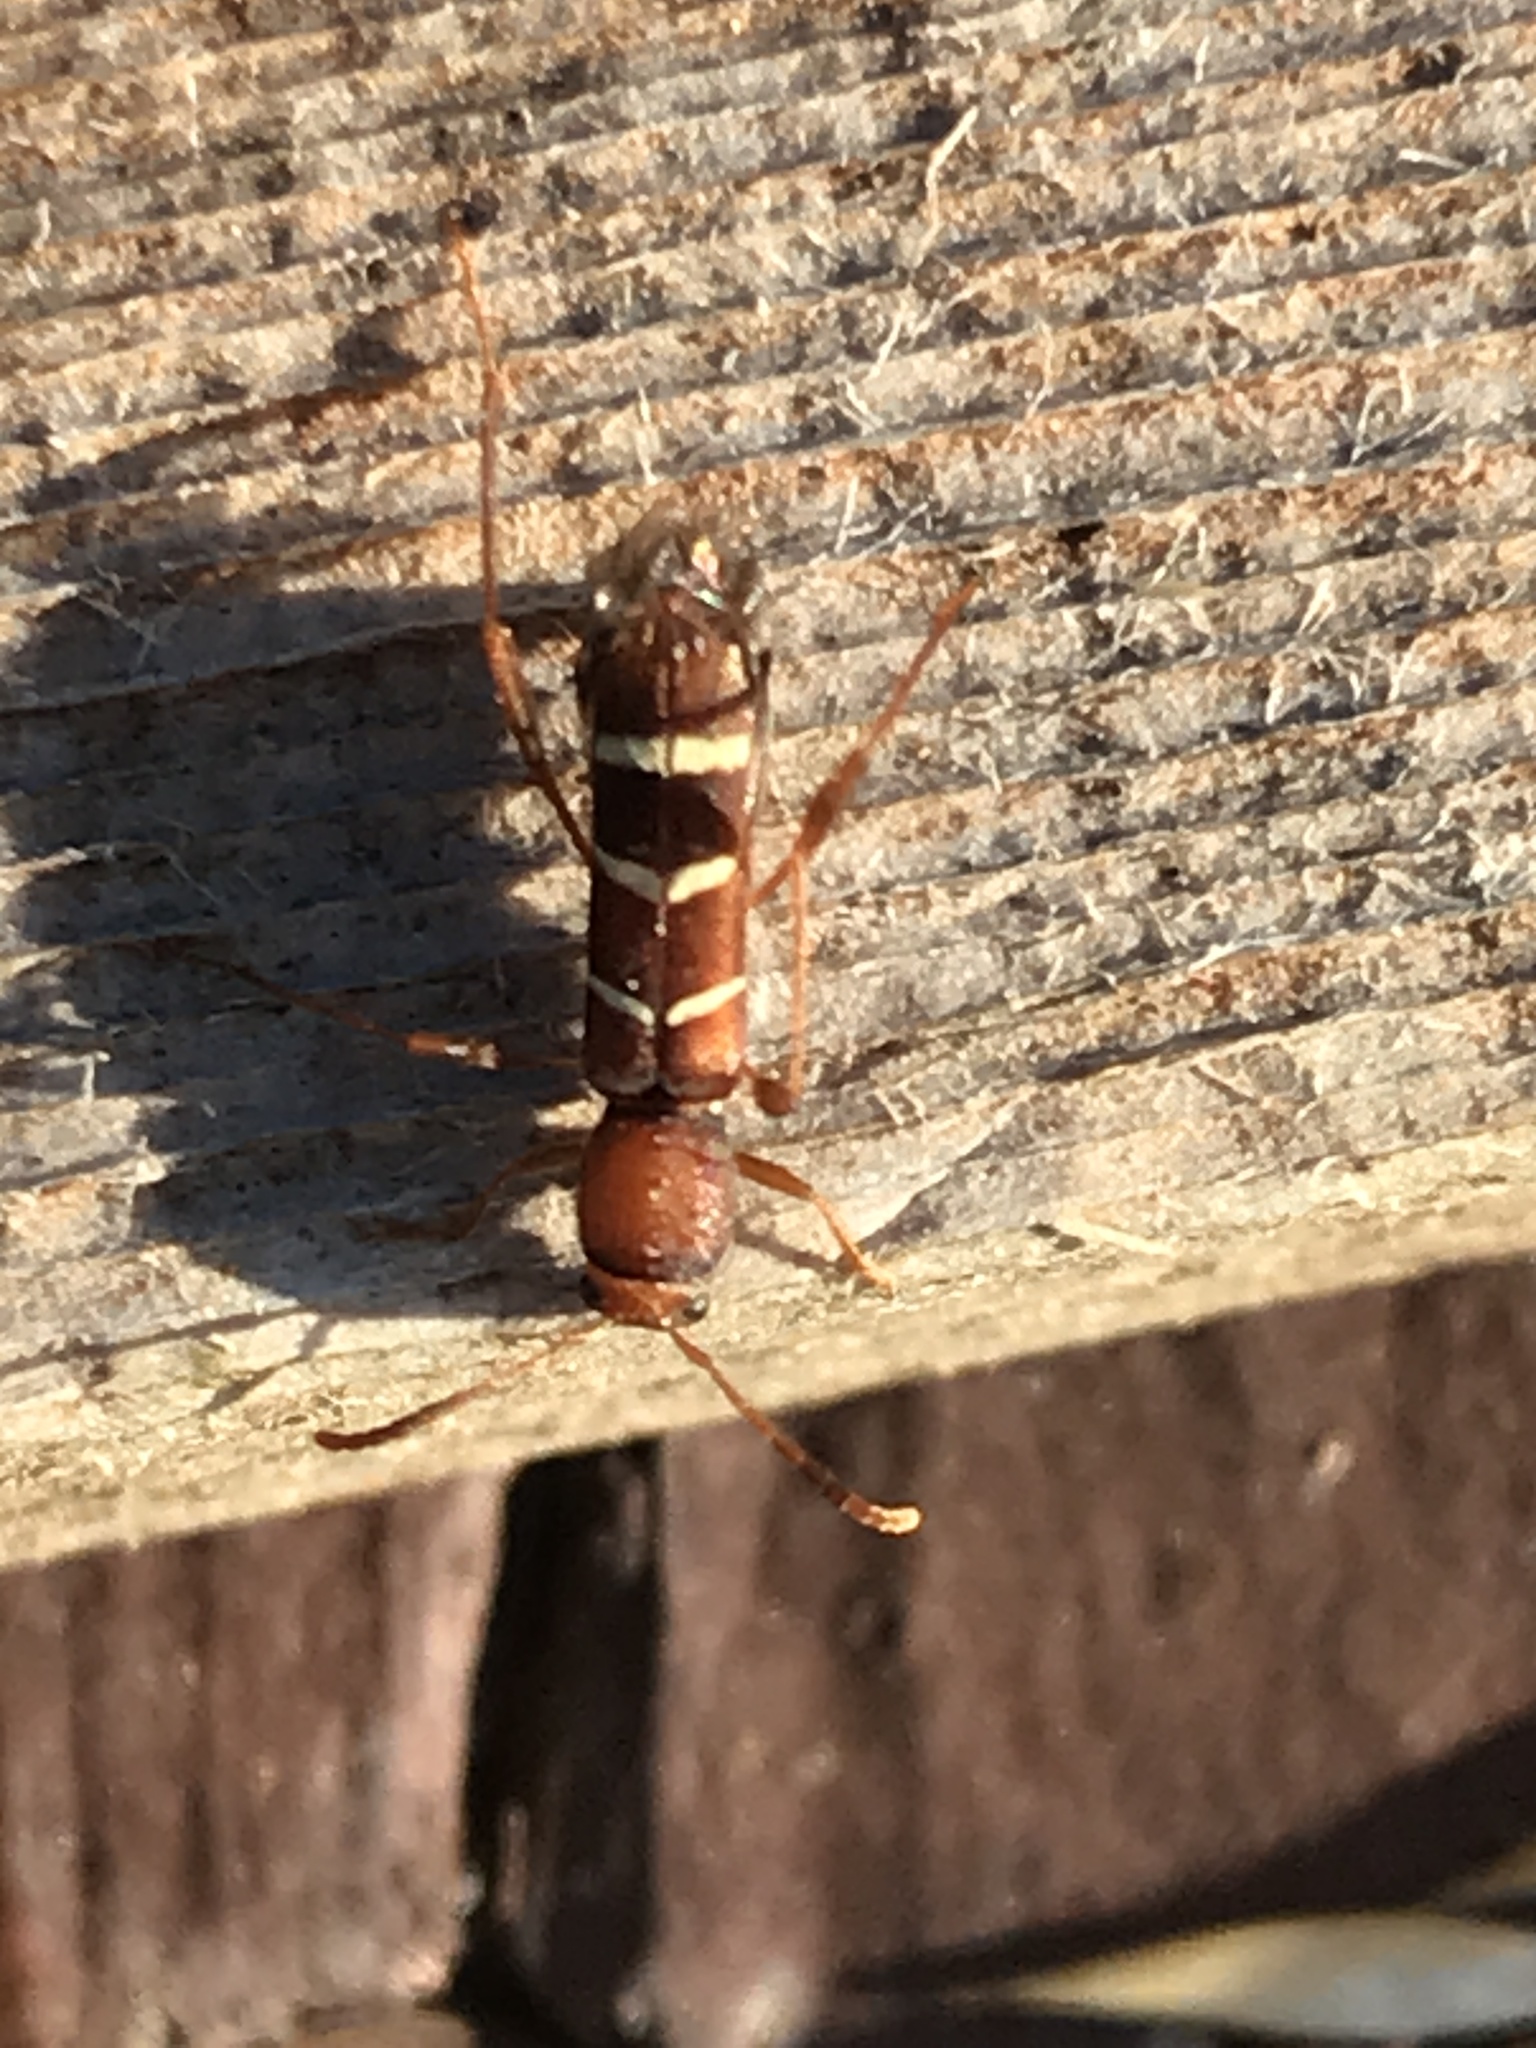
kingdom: Animalia
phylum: Arthropoda
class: Insecta
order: Coleoptera
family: Cerambycidae
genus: Neoclytus
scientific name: Neoclytus acuminatus
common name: Read-headed ash borer
